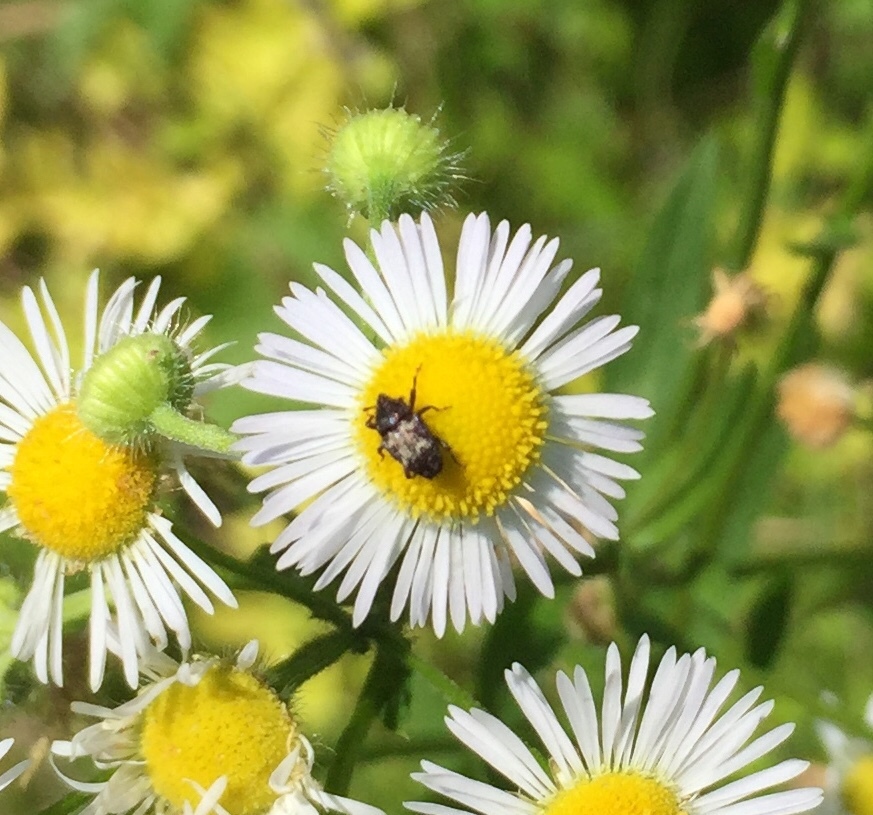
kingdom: Animalia
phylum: Arthropoda
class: Insecta
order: Coleoptera
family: Curculionidae
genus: Glyptobaris
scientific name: Glyptobaris lecontei
